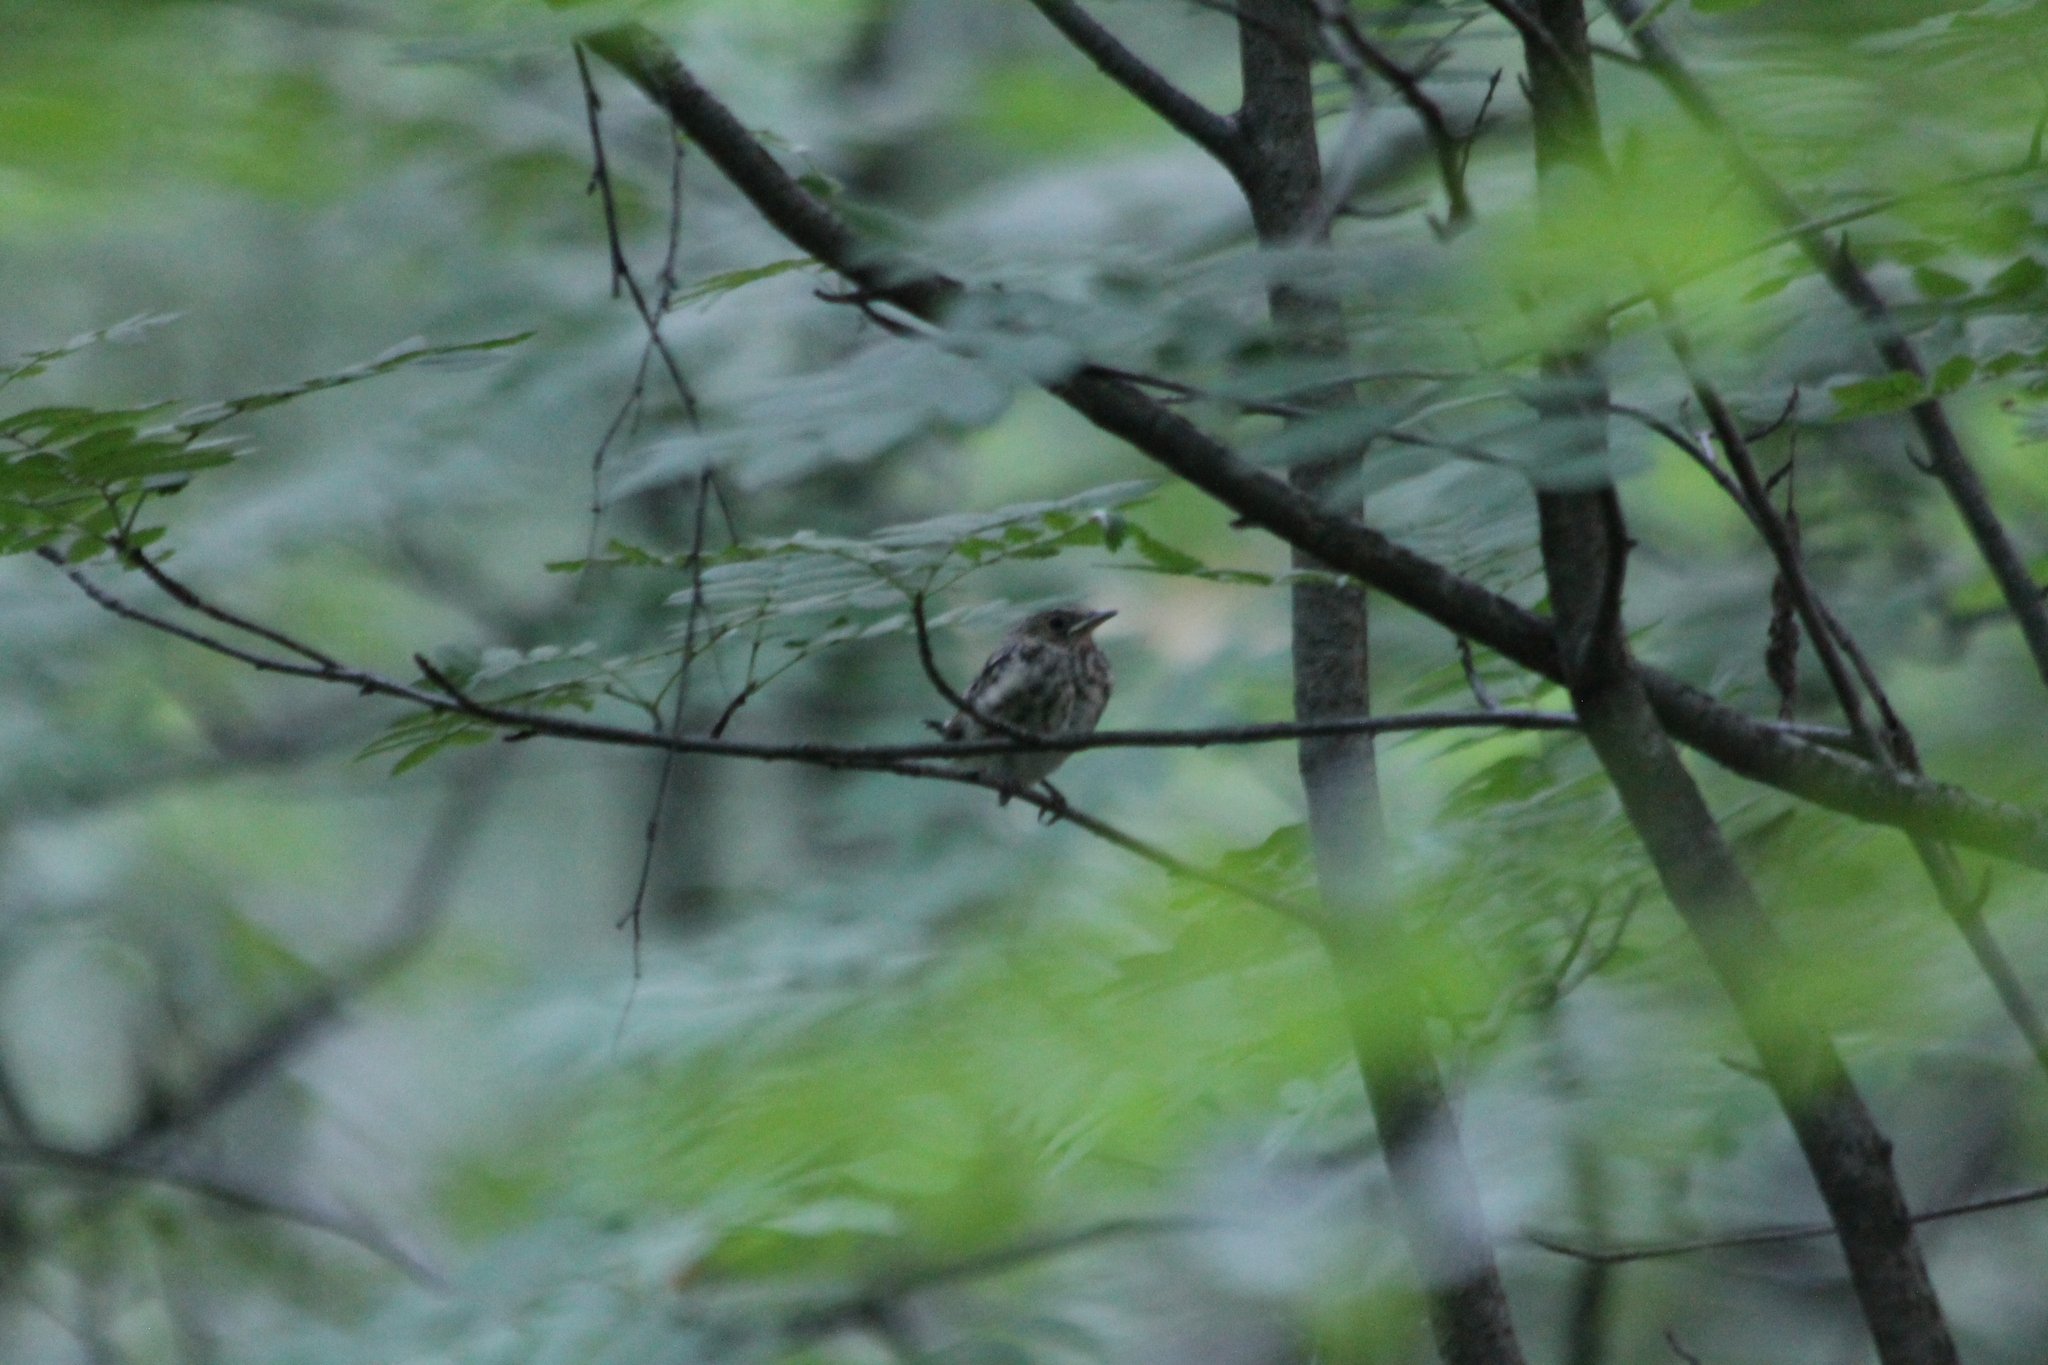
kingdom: Animalia
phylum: Chordata
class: Aves
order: Passeriformes
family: Turdidae
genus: Turdus
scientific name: Turdus philomelos
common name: Song thrush
